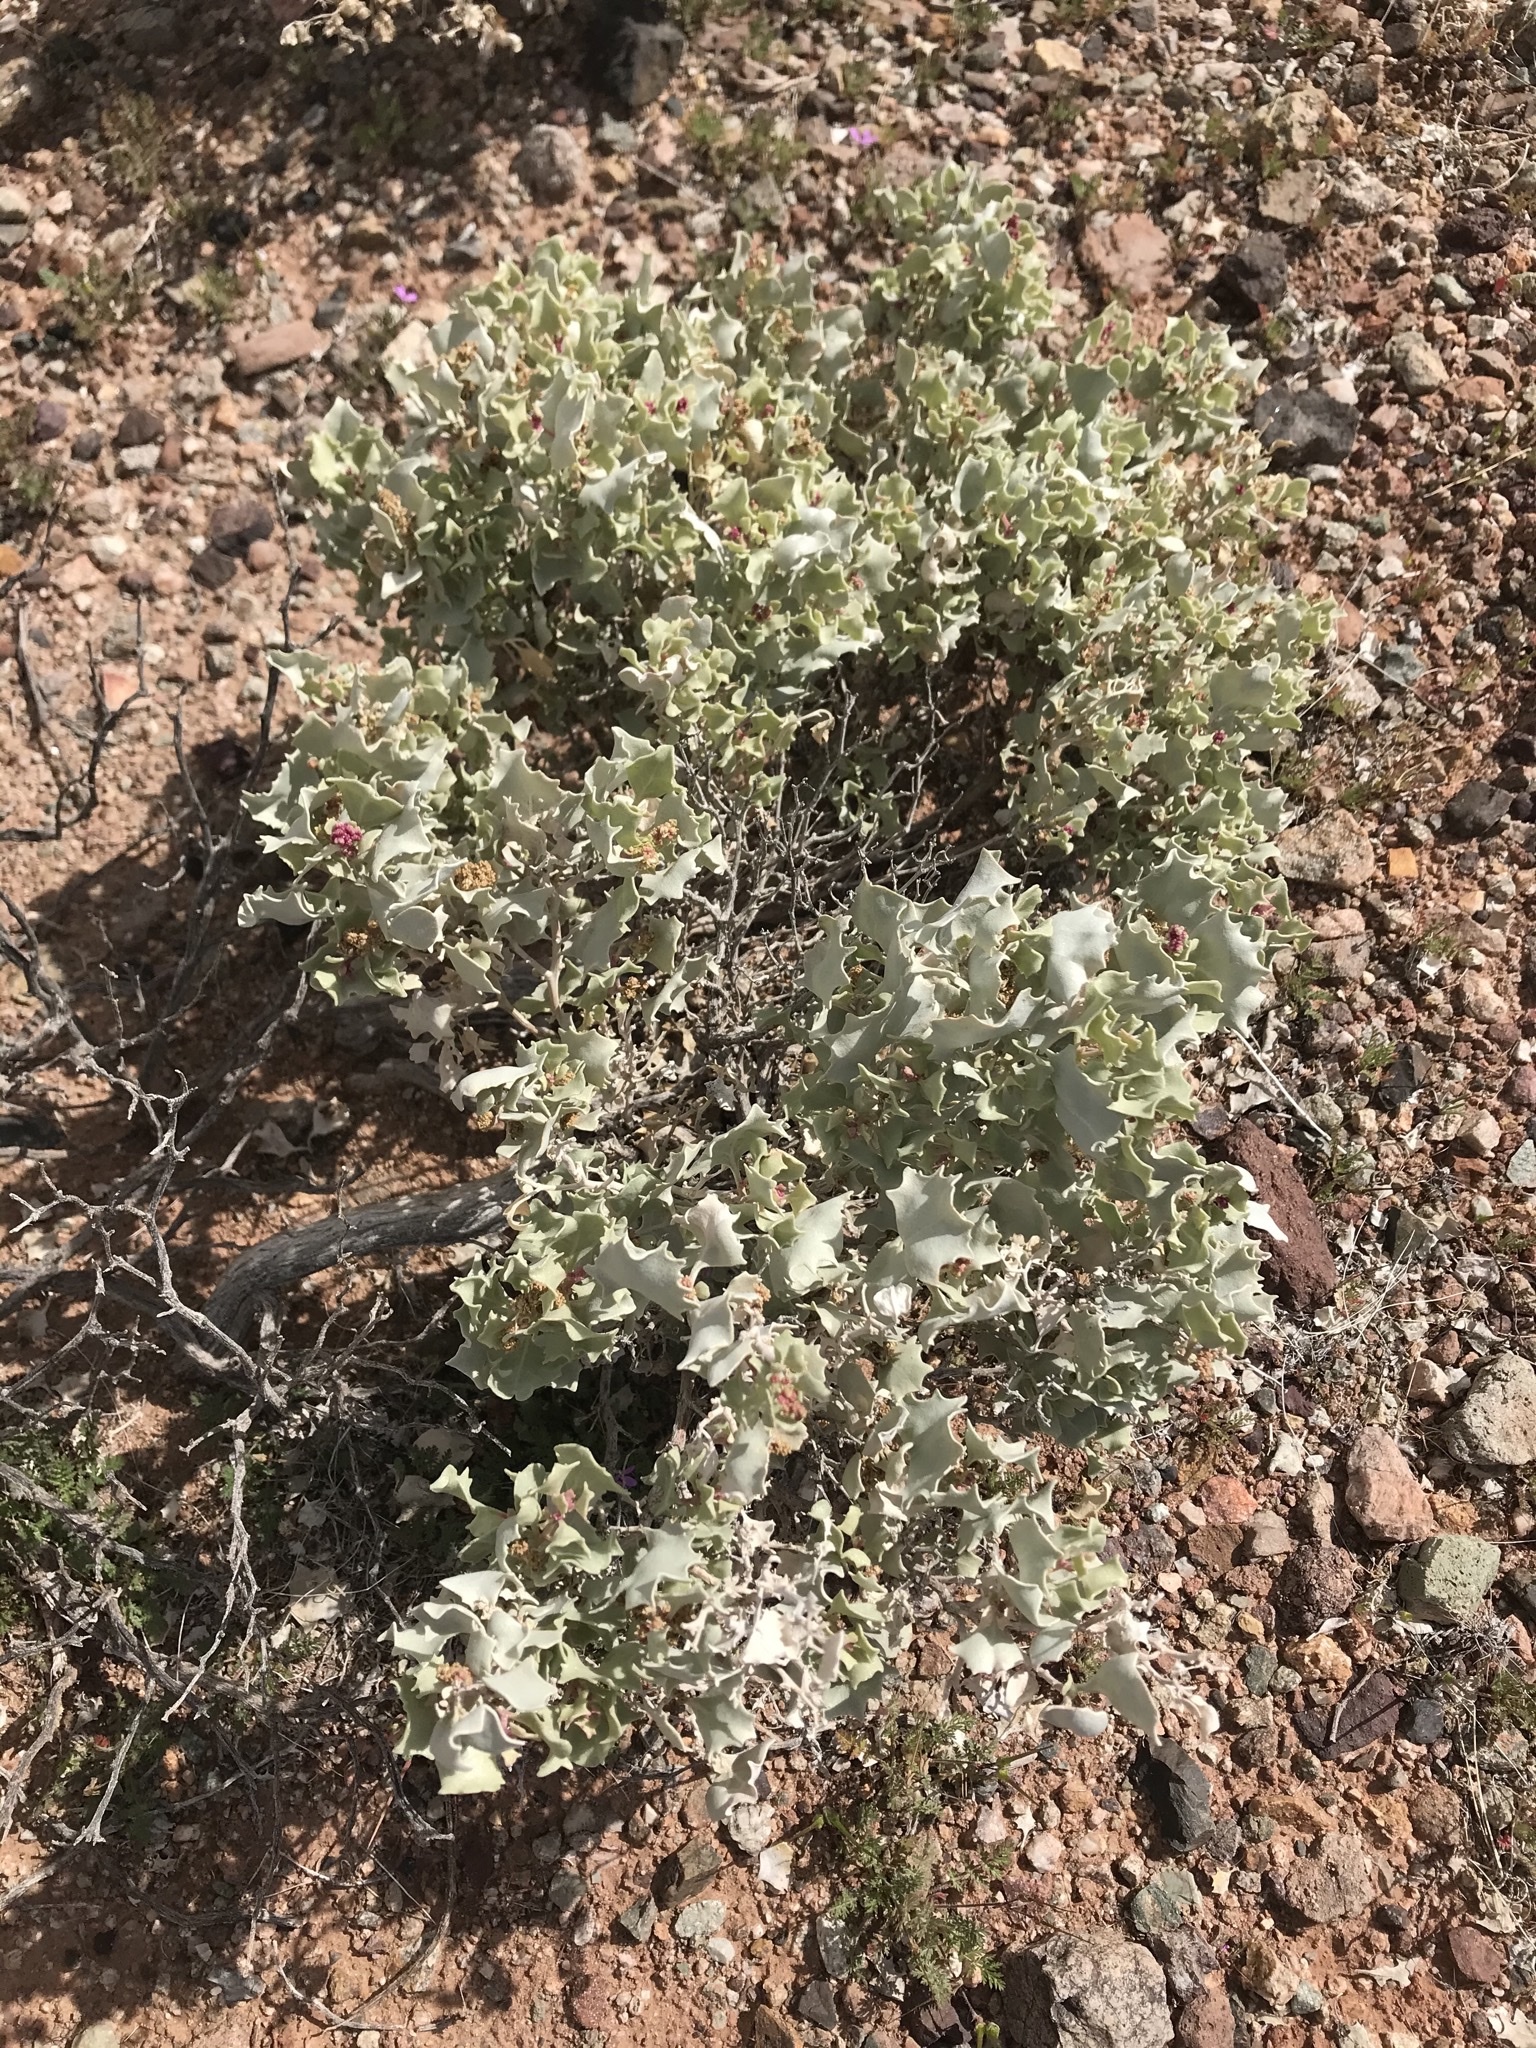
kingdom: Plantae
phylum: Tracheophyta
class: Magnoliopsida
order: Caryophyllales
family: Amaranthaceae
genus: Atriplex
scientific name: Atriplex hymenelytra
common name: Desert-holly
